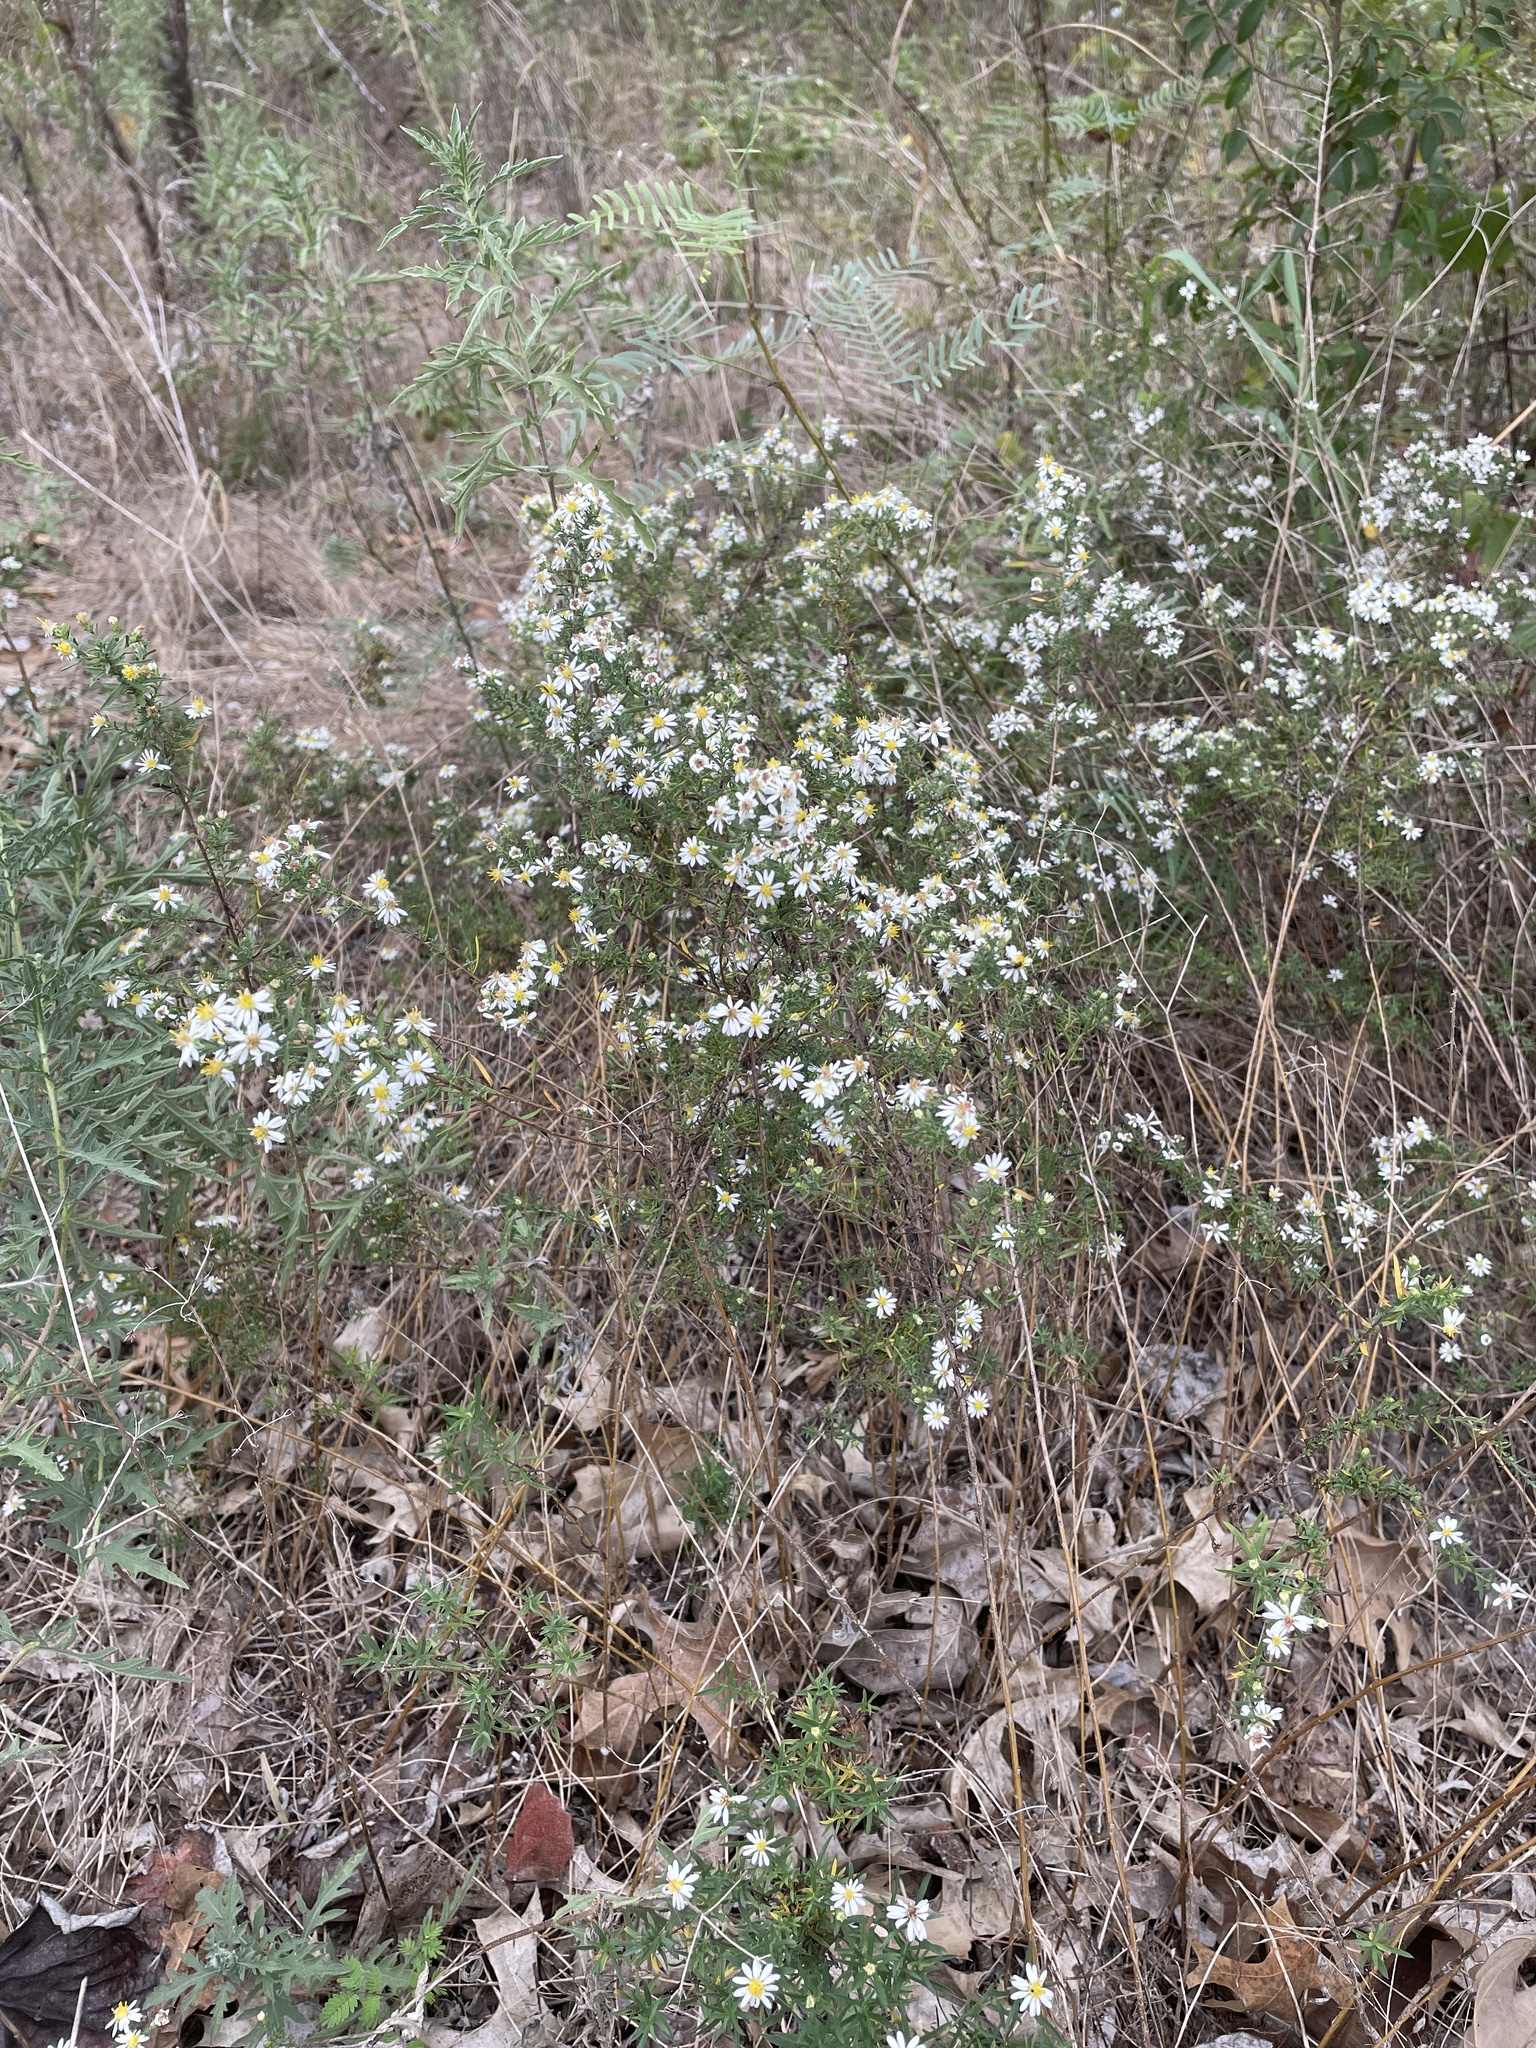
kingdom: Plantae
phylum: Tracheophyta
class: Magnoliopsida
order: Asterales
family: Asteraceae
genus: Symphyotrichum
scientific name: Symphyotrichum ericoides
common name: Heath aster
